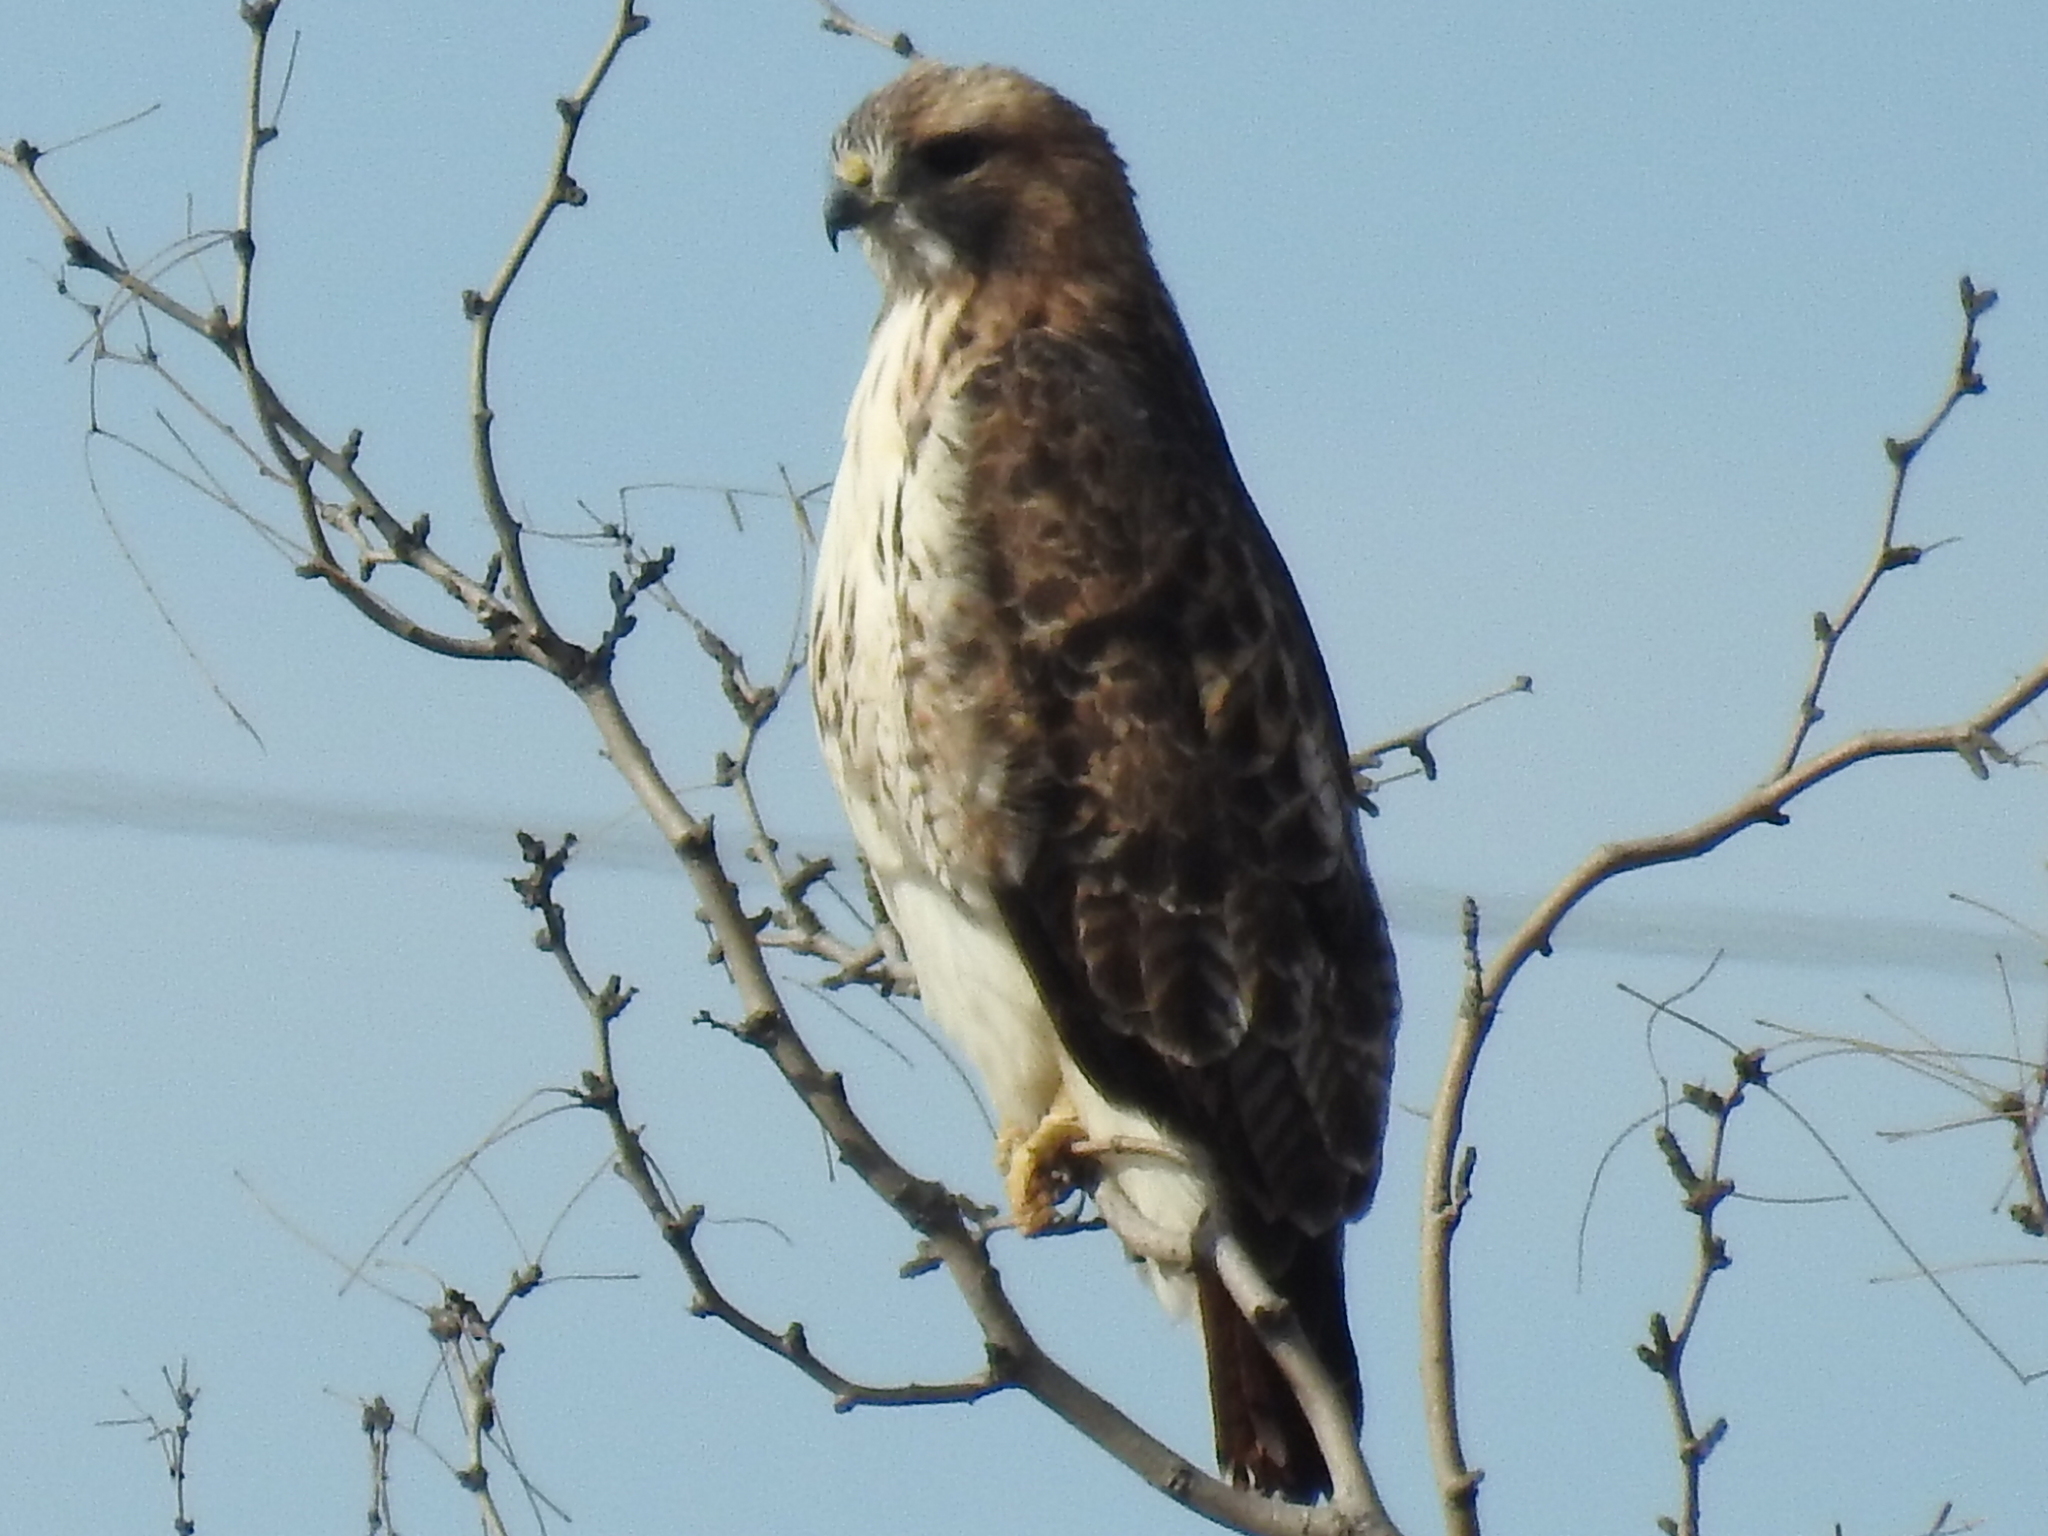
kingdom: Animalia
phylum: Chordata
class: Aves
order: Accipitriformes
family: Accipitridae
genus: Buteo
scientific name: Buteo jamaicensis
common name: Red-tailed hawk
